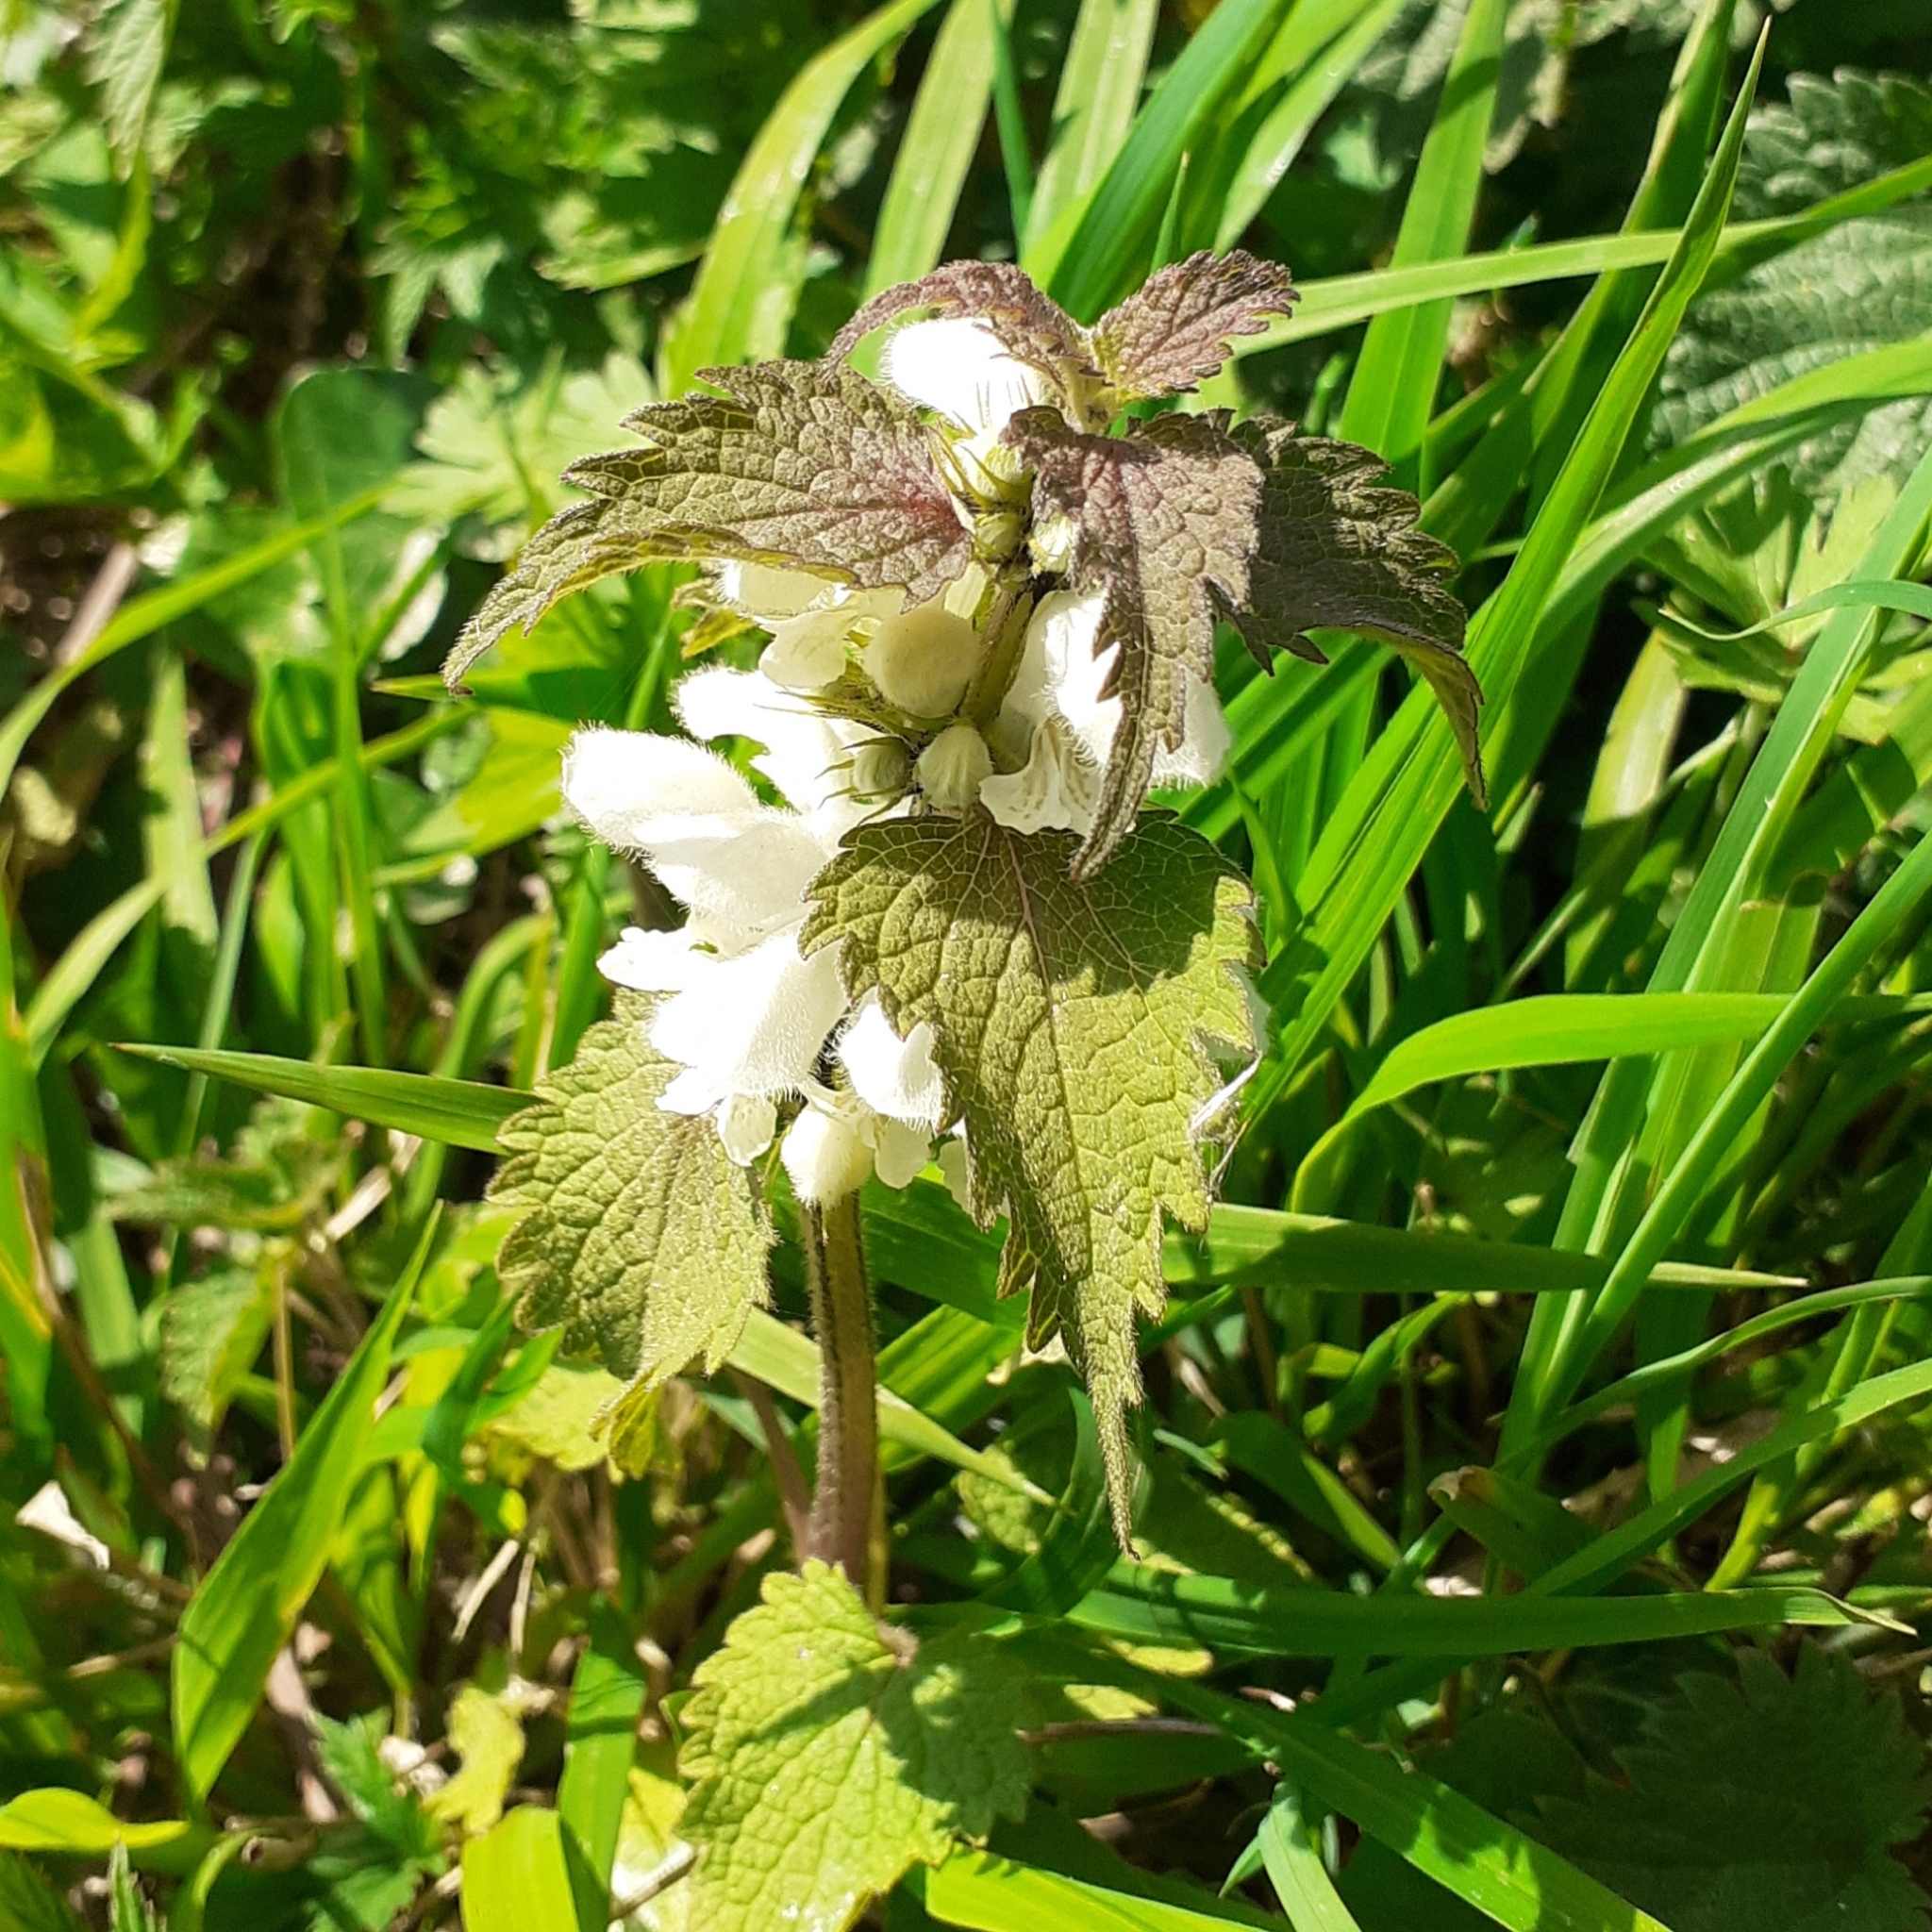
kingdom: Plantae
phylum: Tracheophyta
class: Magnoliopsida
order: Lamiales
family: Lamiaceae
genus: Lamium
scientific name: Lamium album
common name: White dead-nettle
